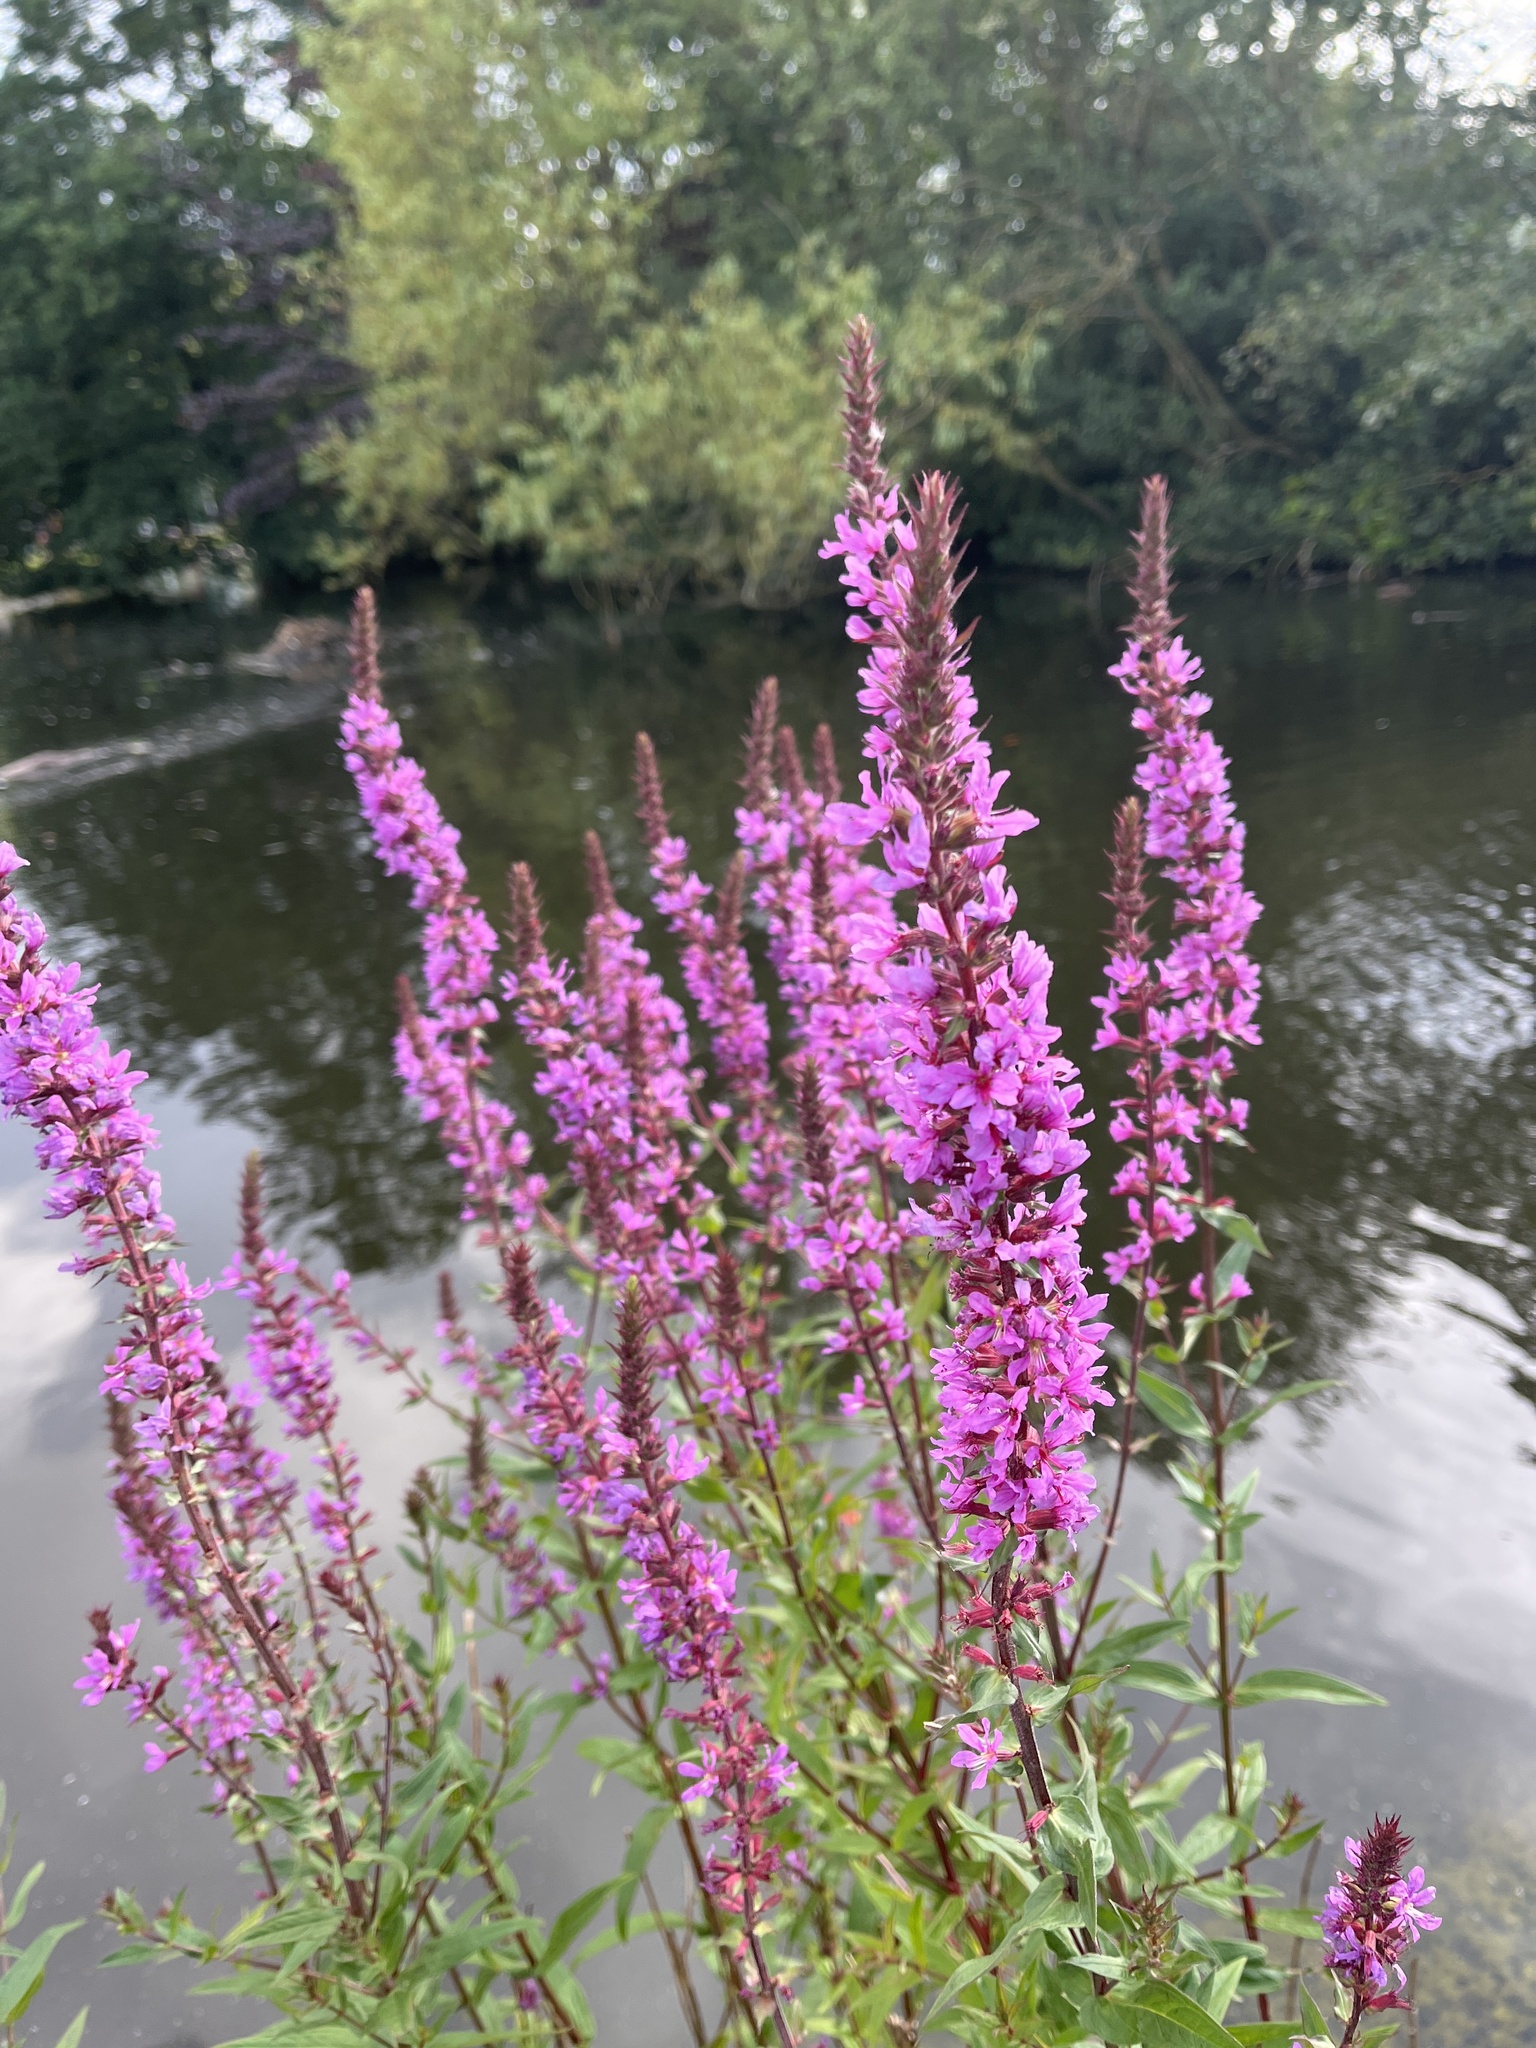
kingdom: Plantae
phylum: Tracheophyta
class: Magnoliopsida
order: Myrtales
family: Lythraceae
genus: Lythrum
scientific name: Lythrum salicaria
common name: Purple loosestrife
